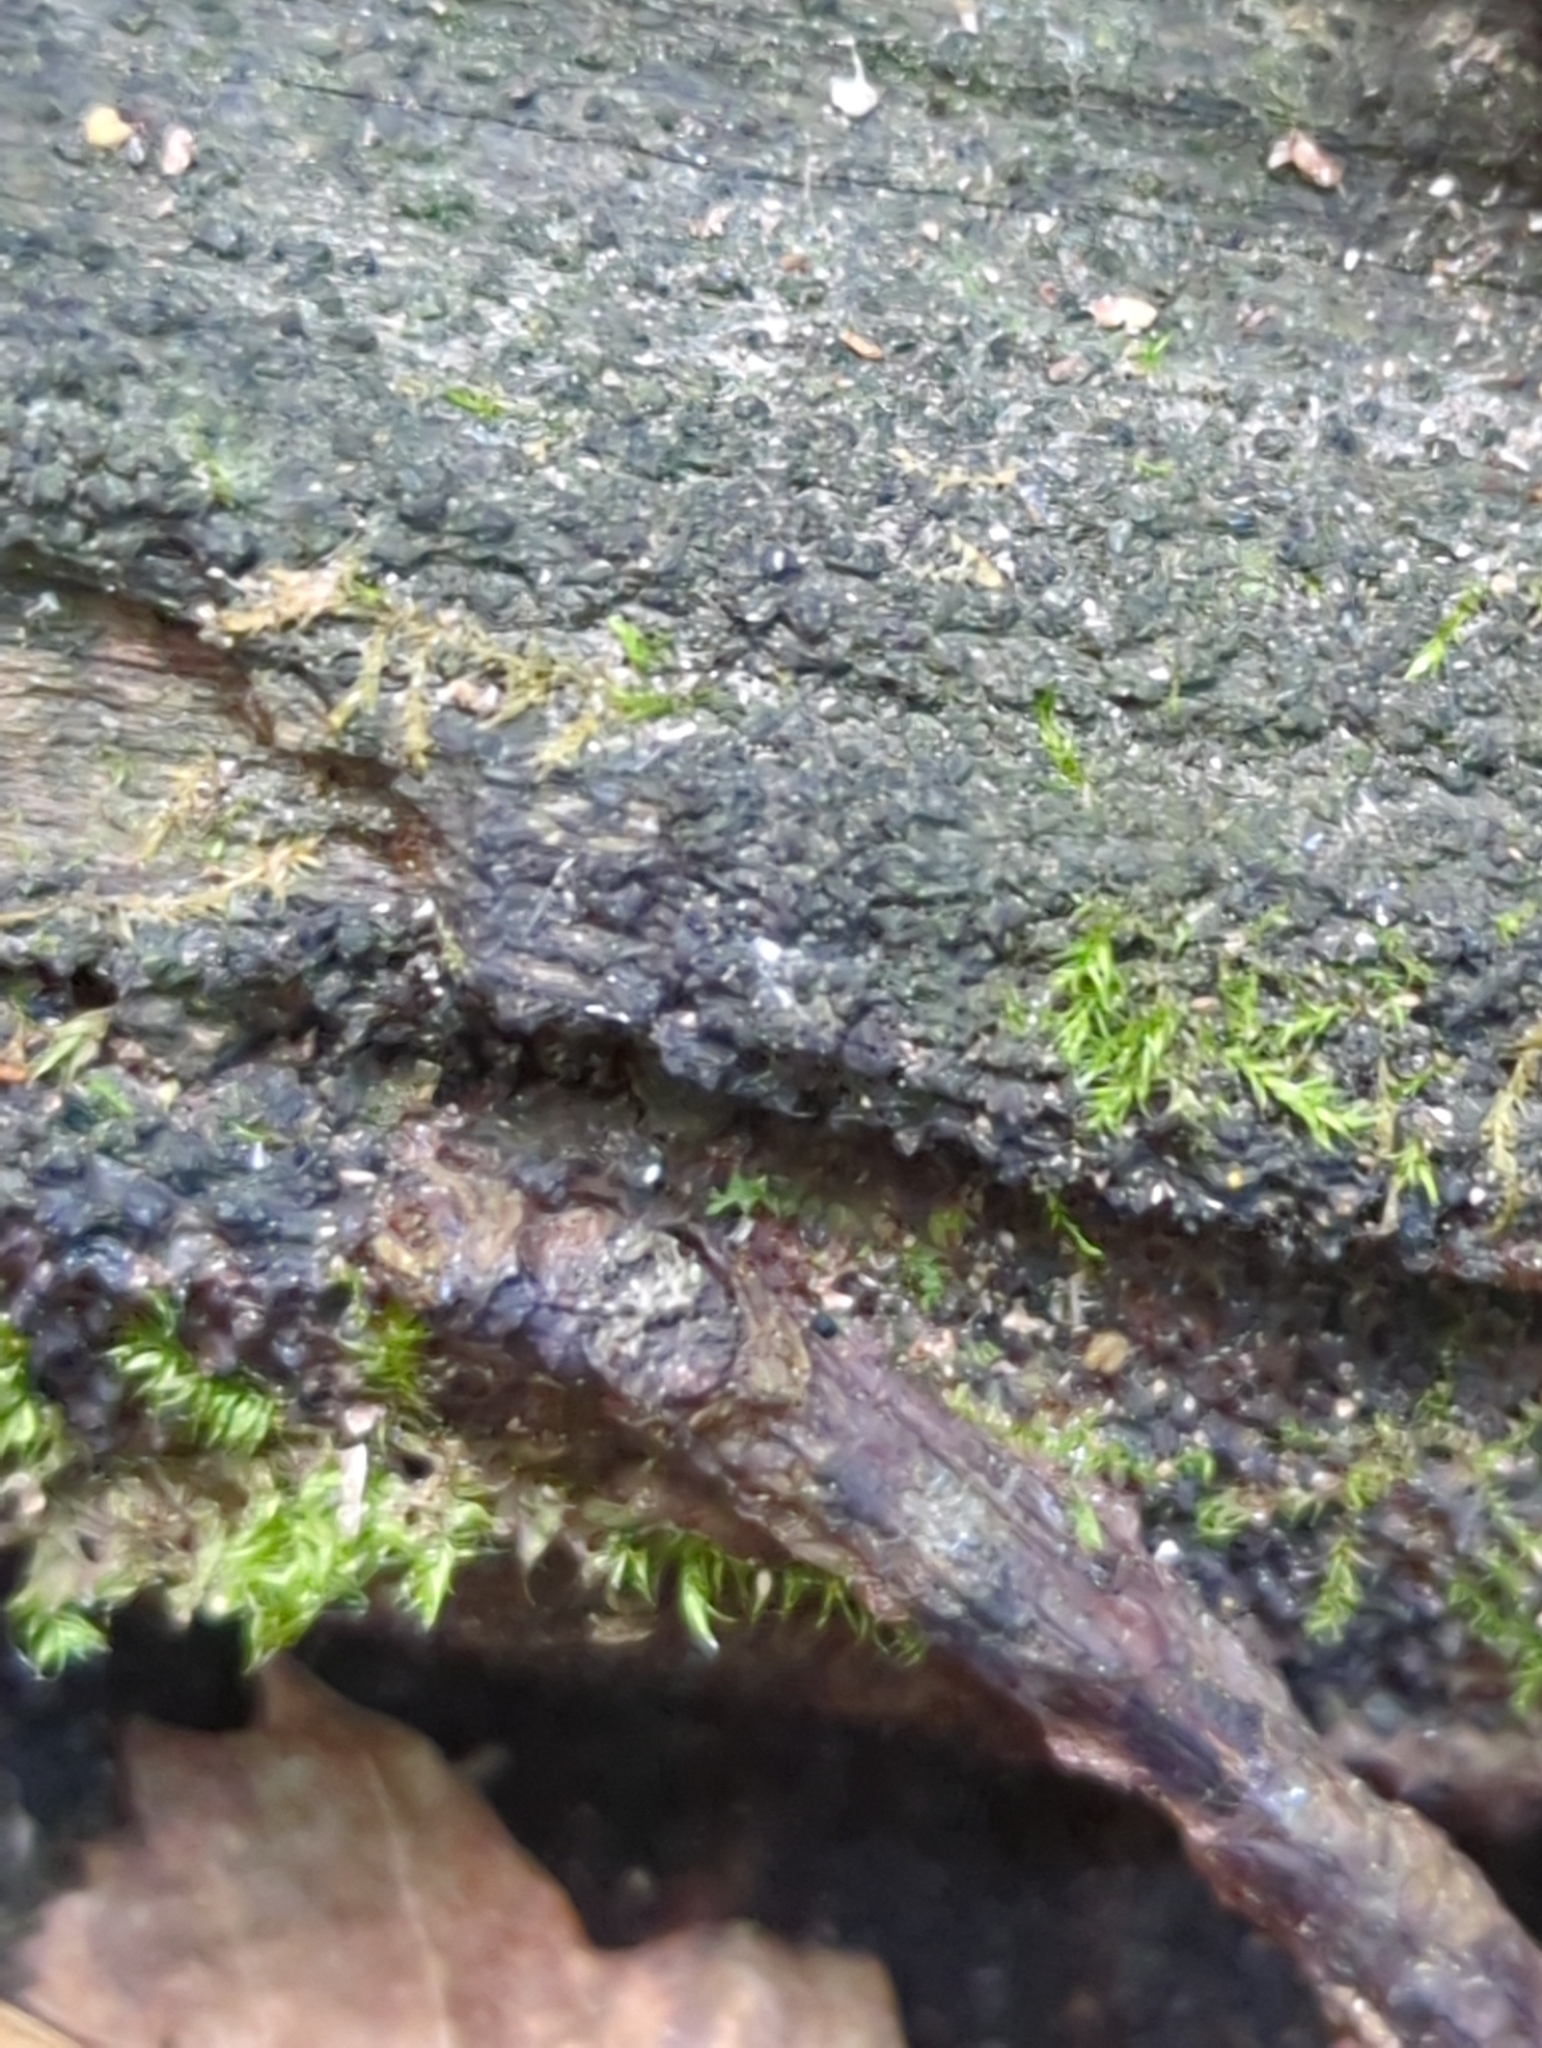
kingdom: Fungi
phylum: Ascomycota
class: Sordariomycetes
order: Xylariales
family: Diatrypaceae
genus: Eutypa
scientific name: Eutypa spinosa
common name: Spiral tarcrust
